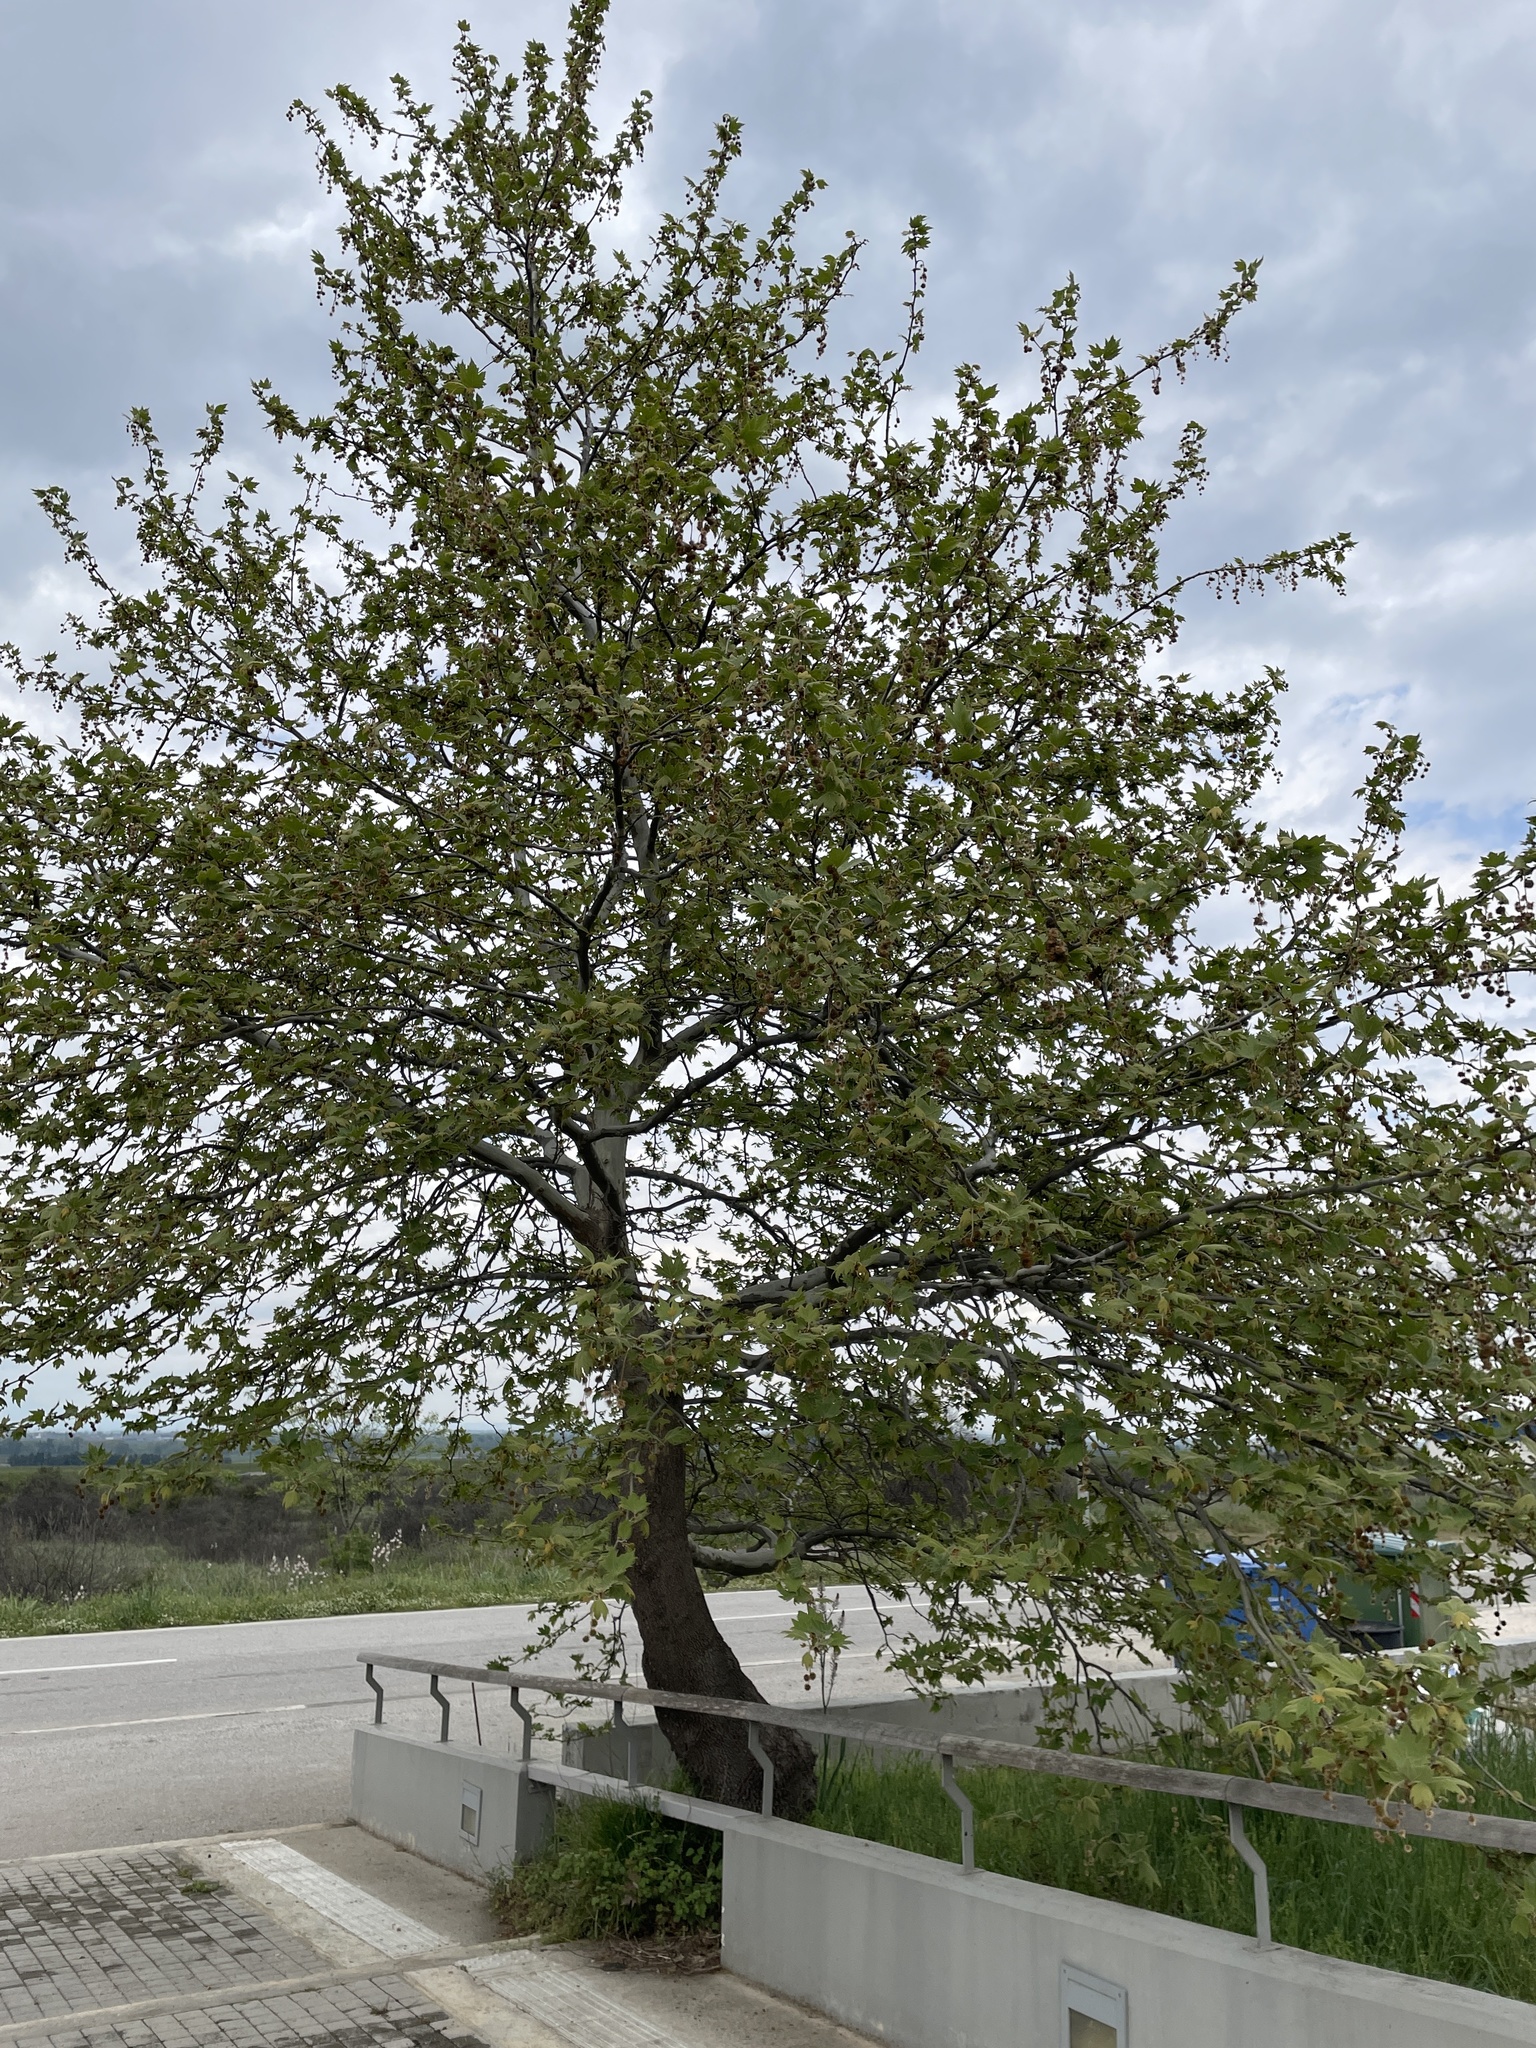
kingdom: Plantae
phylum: Tracheophyta
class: Magnoliopsida
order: Proteales
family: Platanaceae
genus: Platanus
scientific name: Platanus orientalis
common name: Oriental plane
